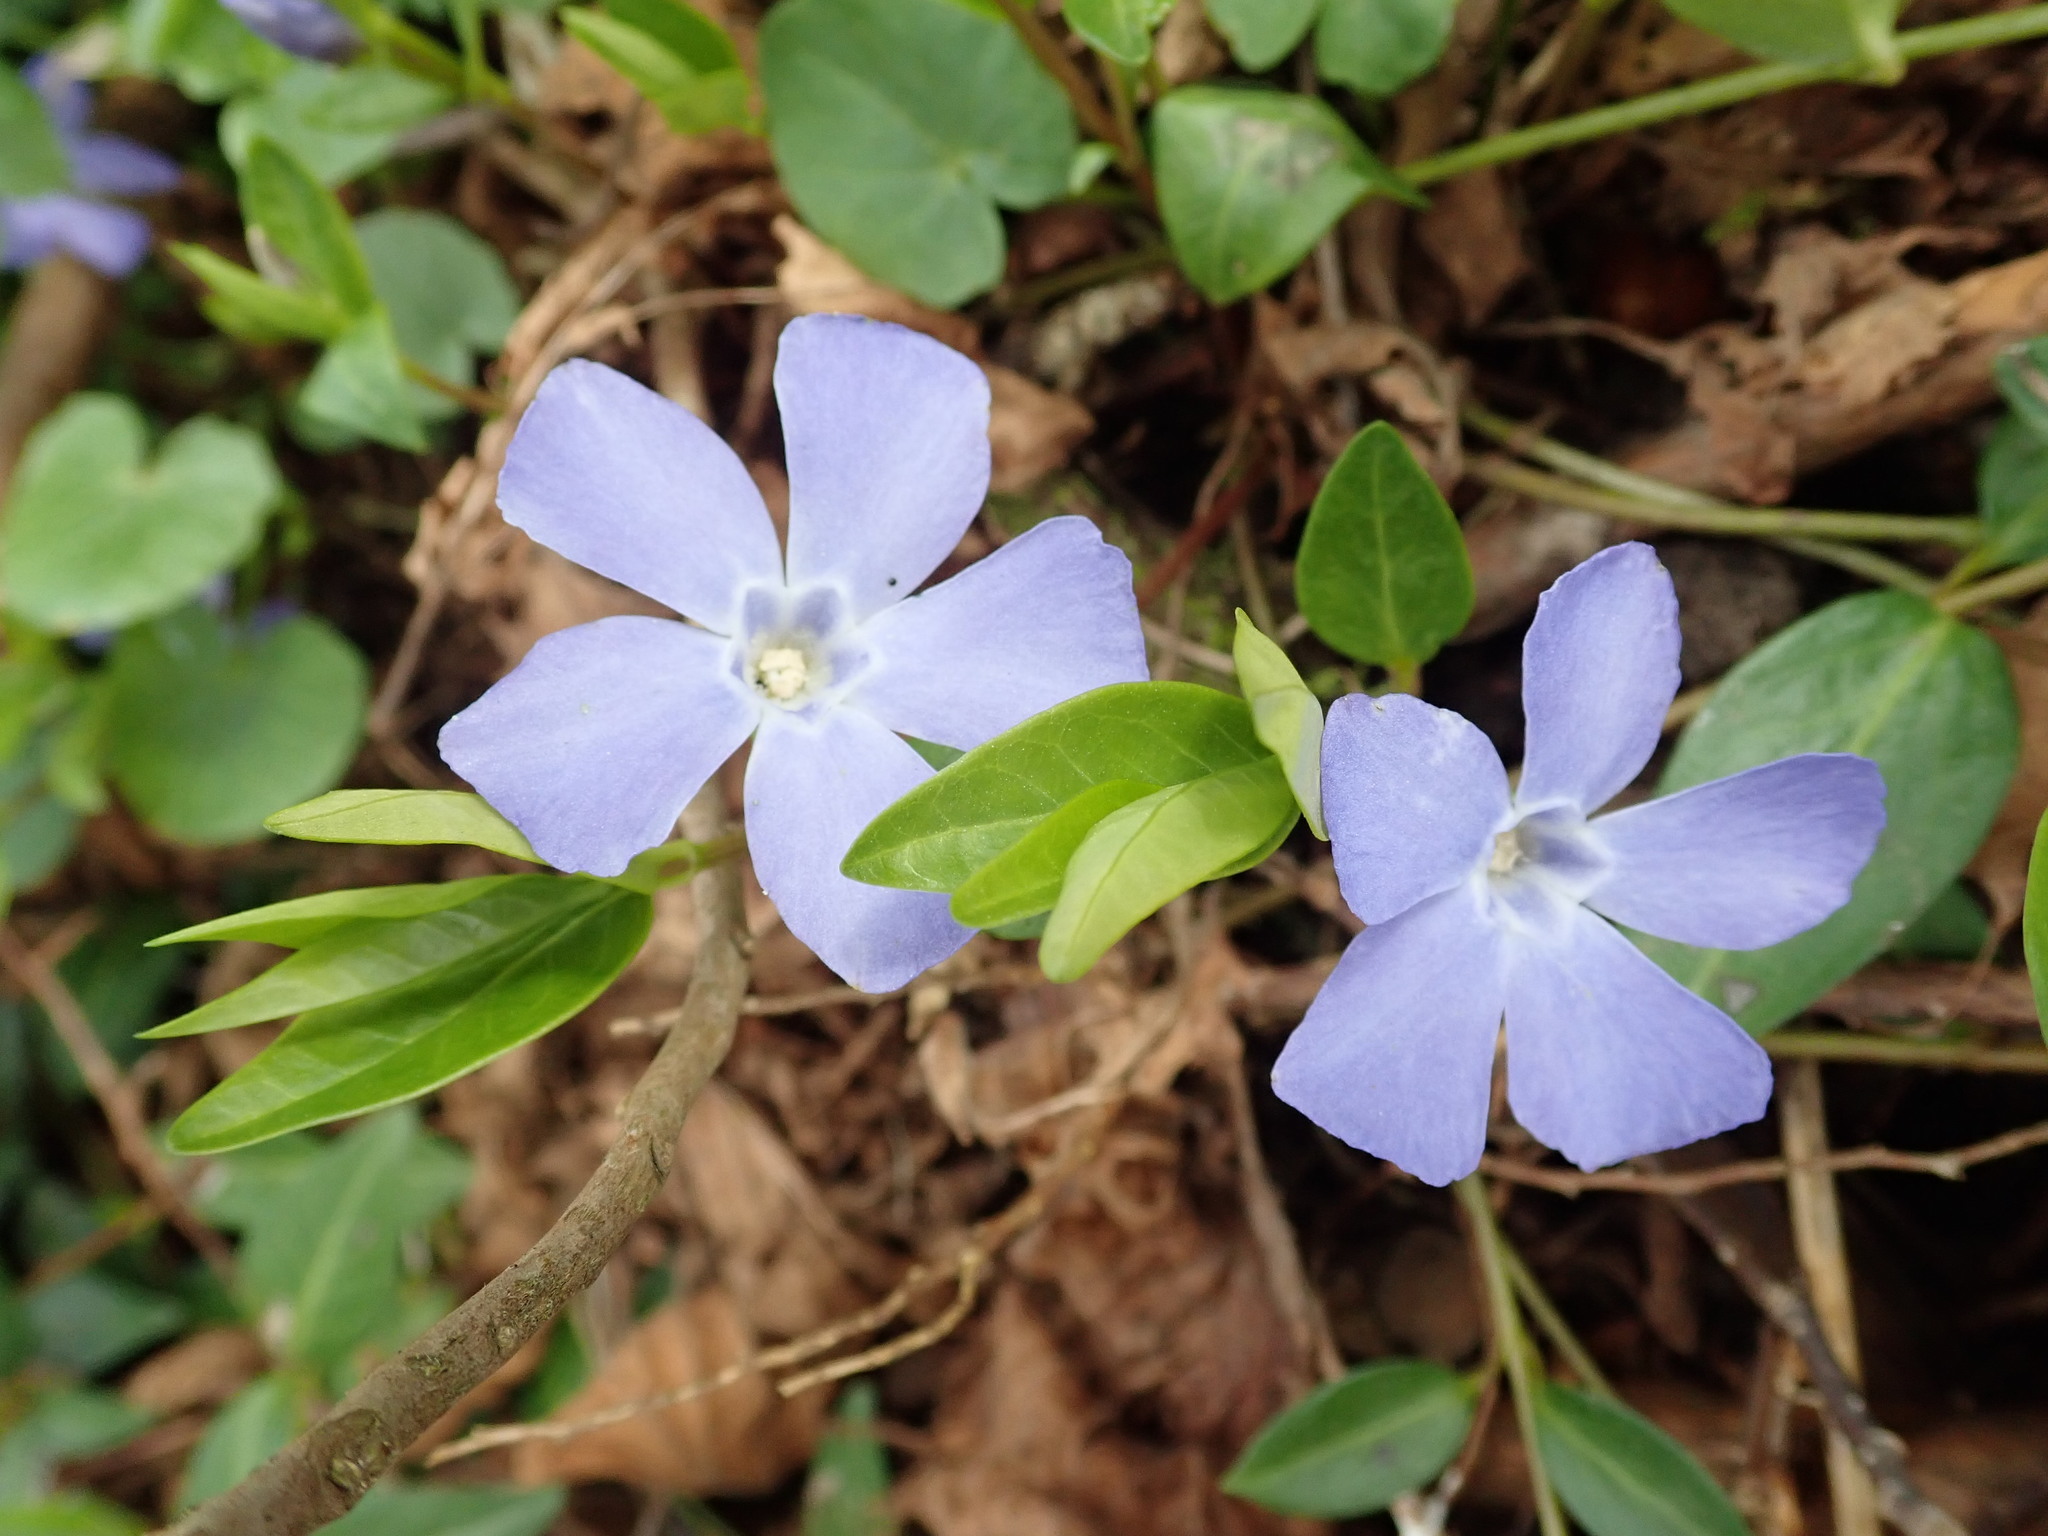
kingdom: Plantae
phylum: Tracheophyta
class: Magnoliopsida
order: Gentianales
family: Apocynaceae
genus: Vinca
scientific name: Vinca minor
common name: Lesser periwinkle
